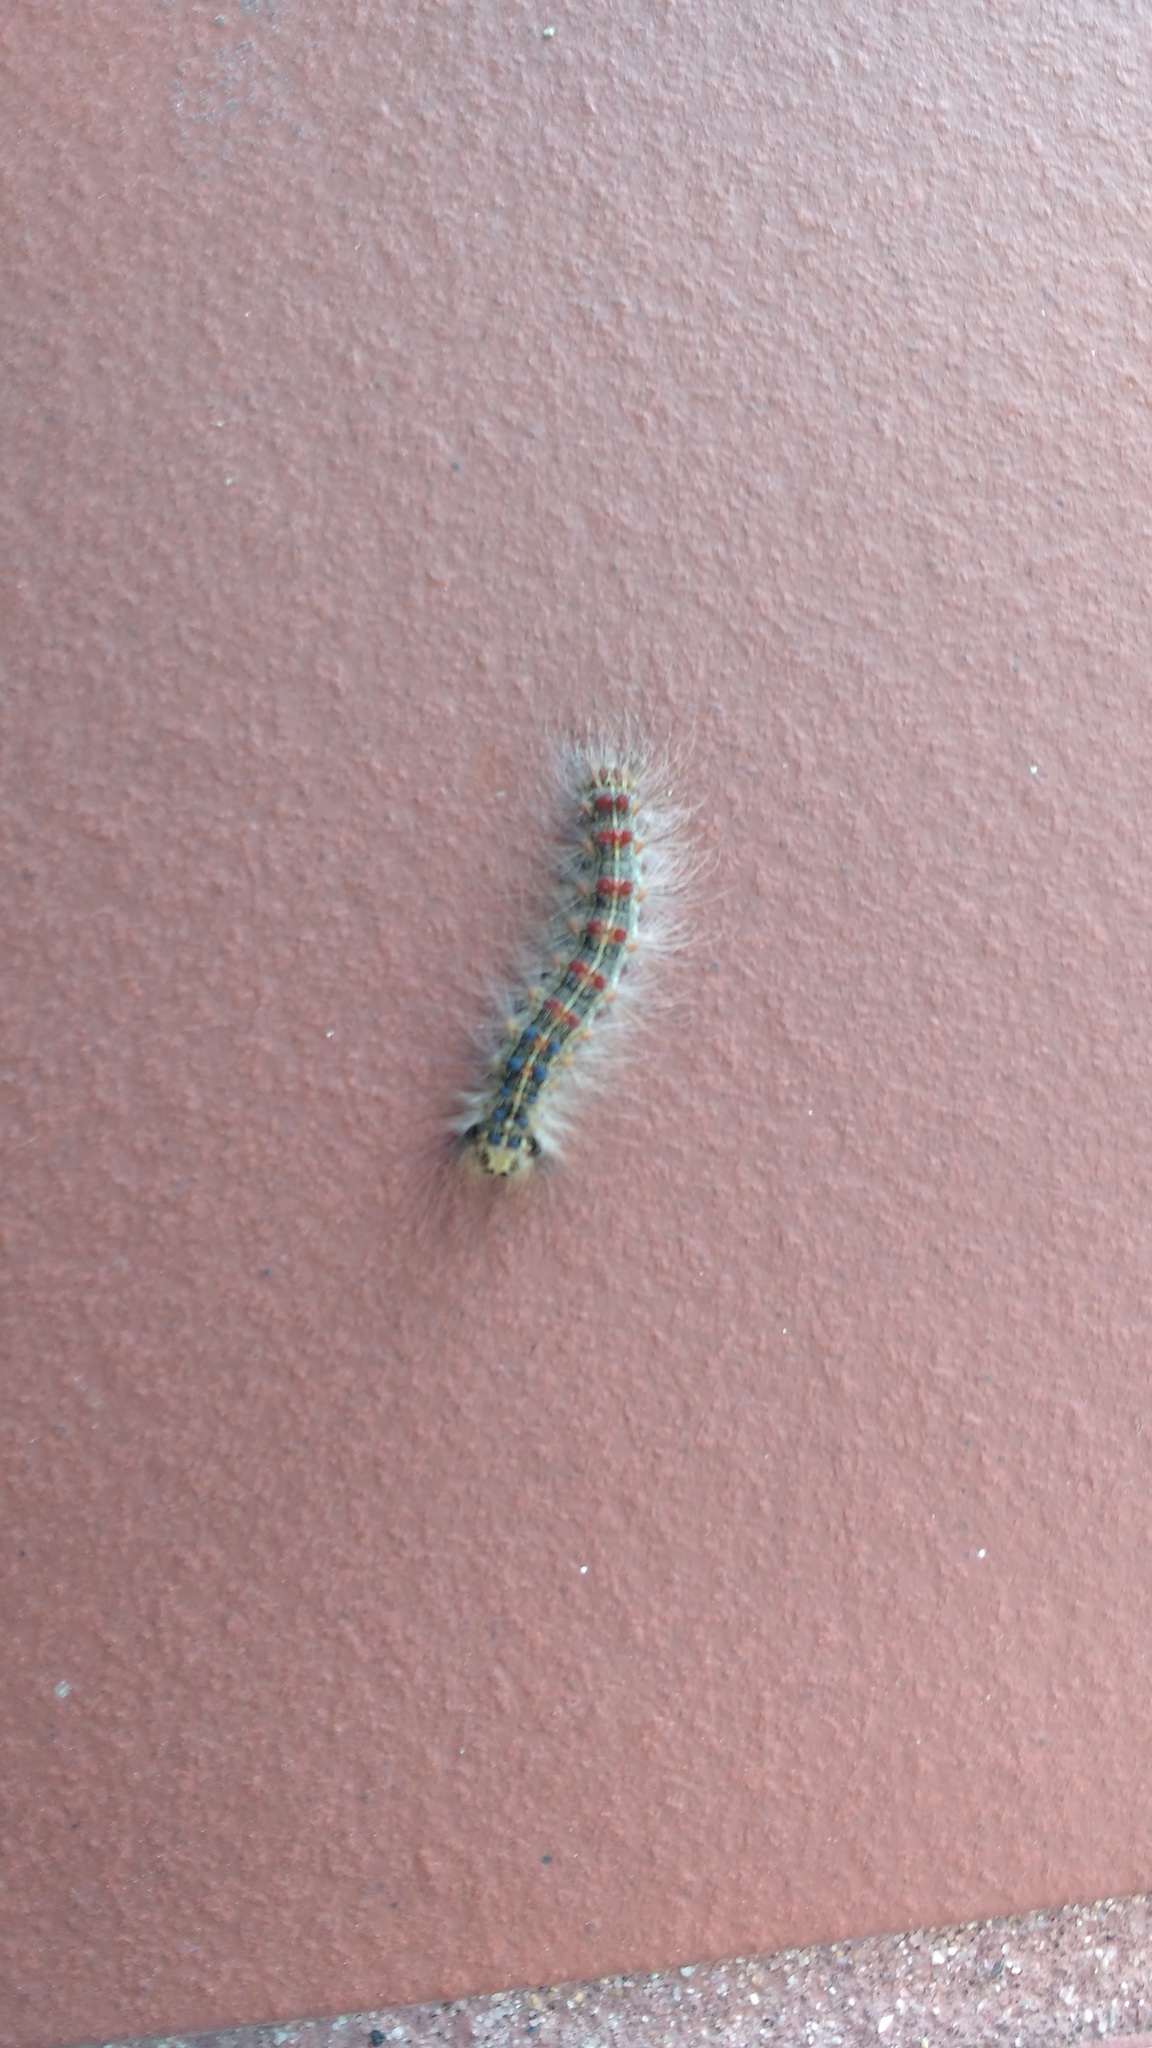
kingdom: Animalia
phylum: Arthropoda
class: Insecta
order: Lepidoptera
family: Erebidae
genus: Lymantria
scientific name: Lymantria dispar
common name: Gypsy moth
